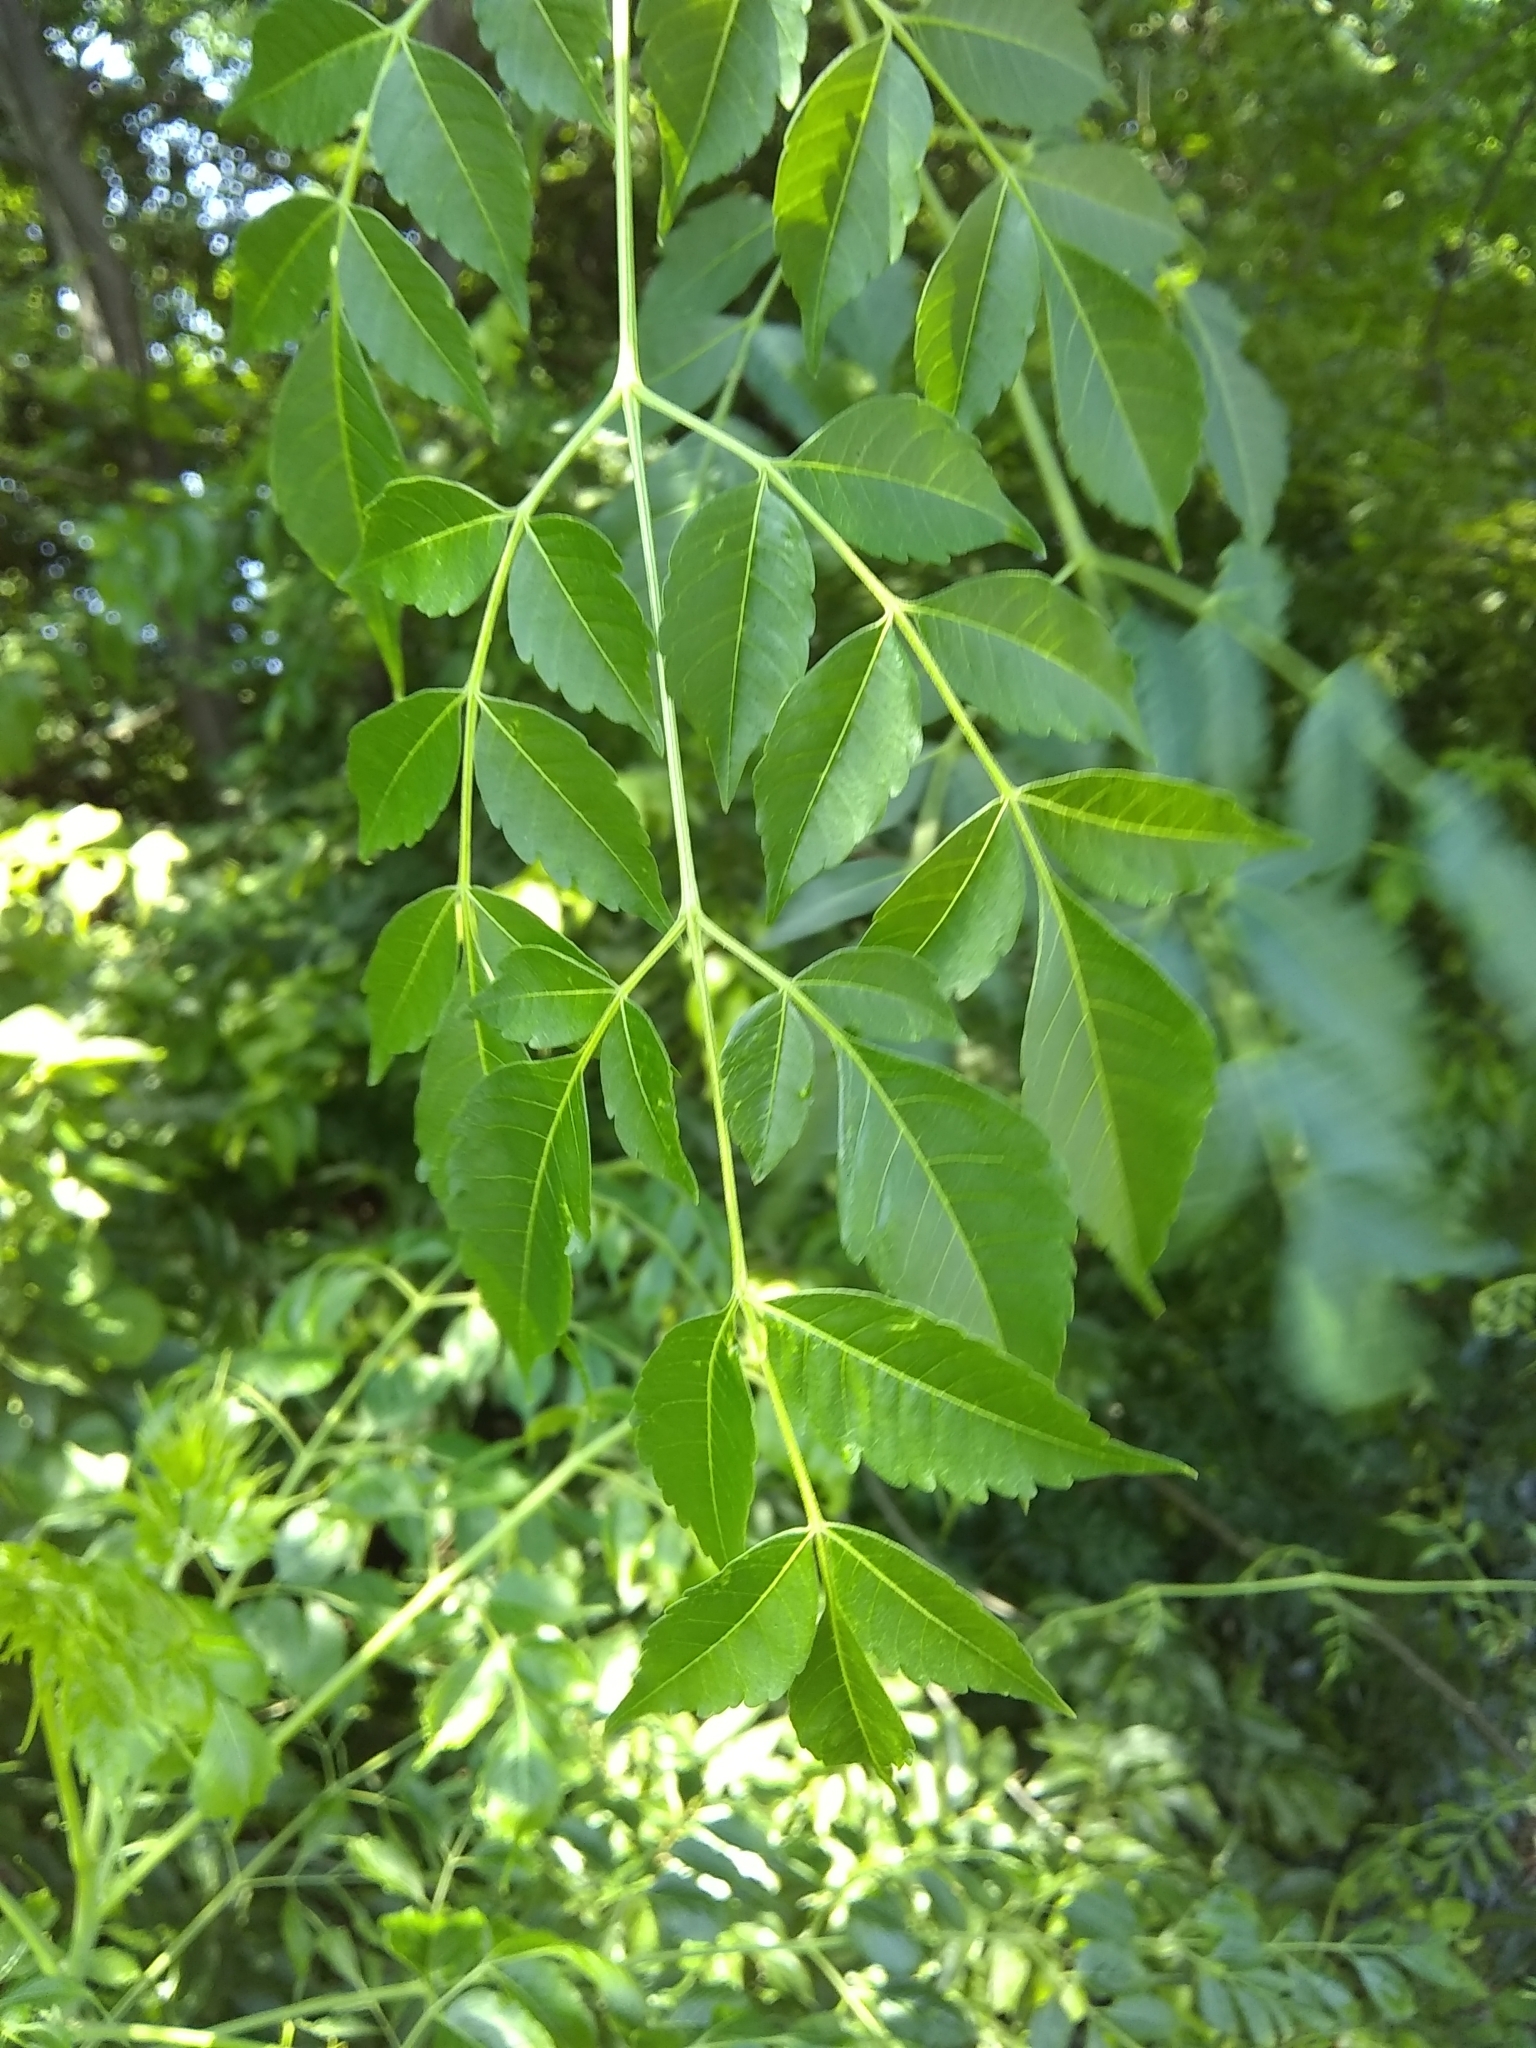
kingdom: Plantae
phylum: Tracheophyta
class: Magnoliopsida
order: Sapindales
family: Meliaceae
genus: Melia
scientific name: Melia azedarach
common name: Chinaberrytree
